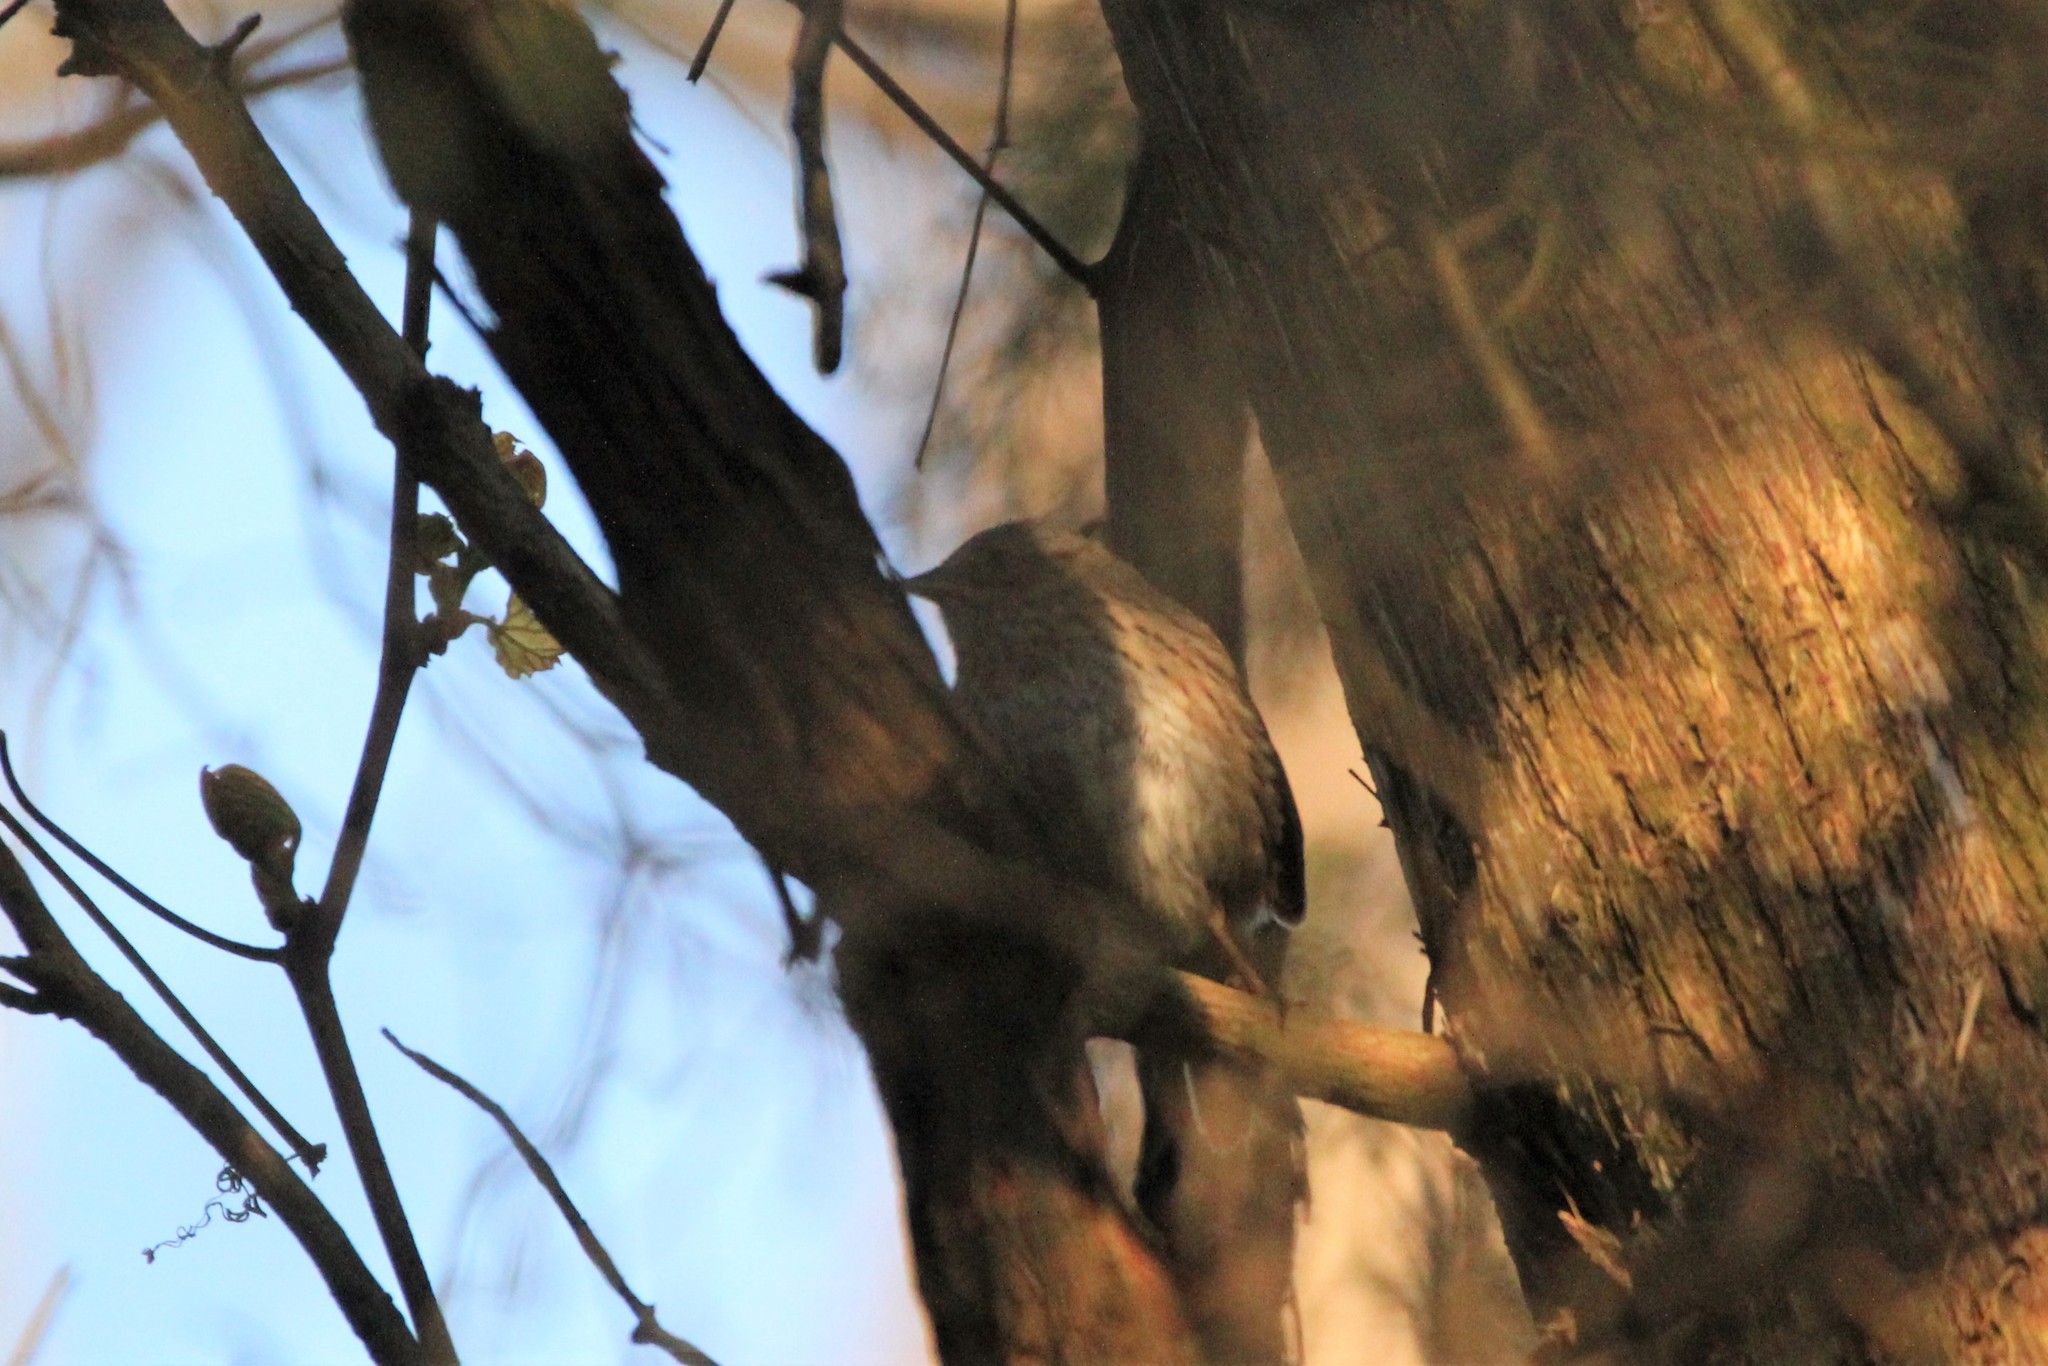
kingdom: Animalia
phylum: Chordata
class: Aves
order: Passeriformes
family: Passerellidae
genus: Melospiza
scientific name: Melospiza lincolnii
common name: Lincoln's sparrow
